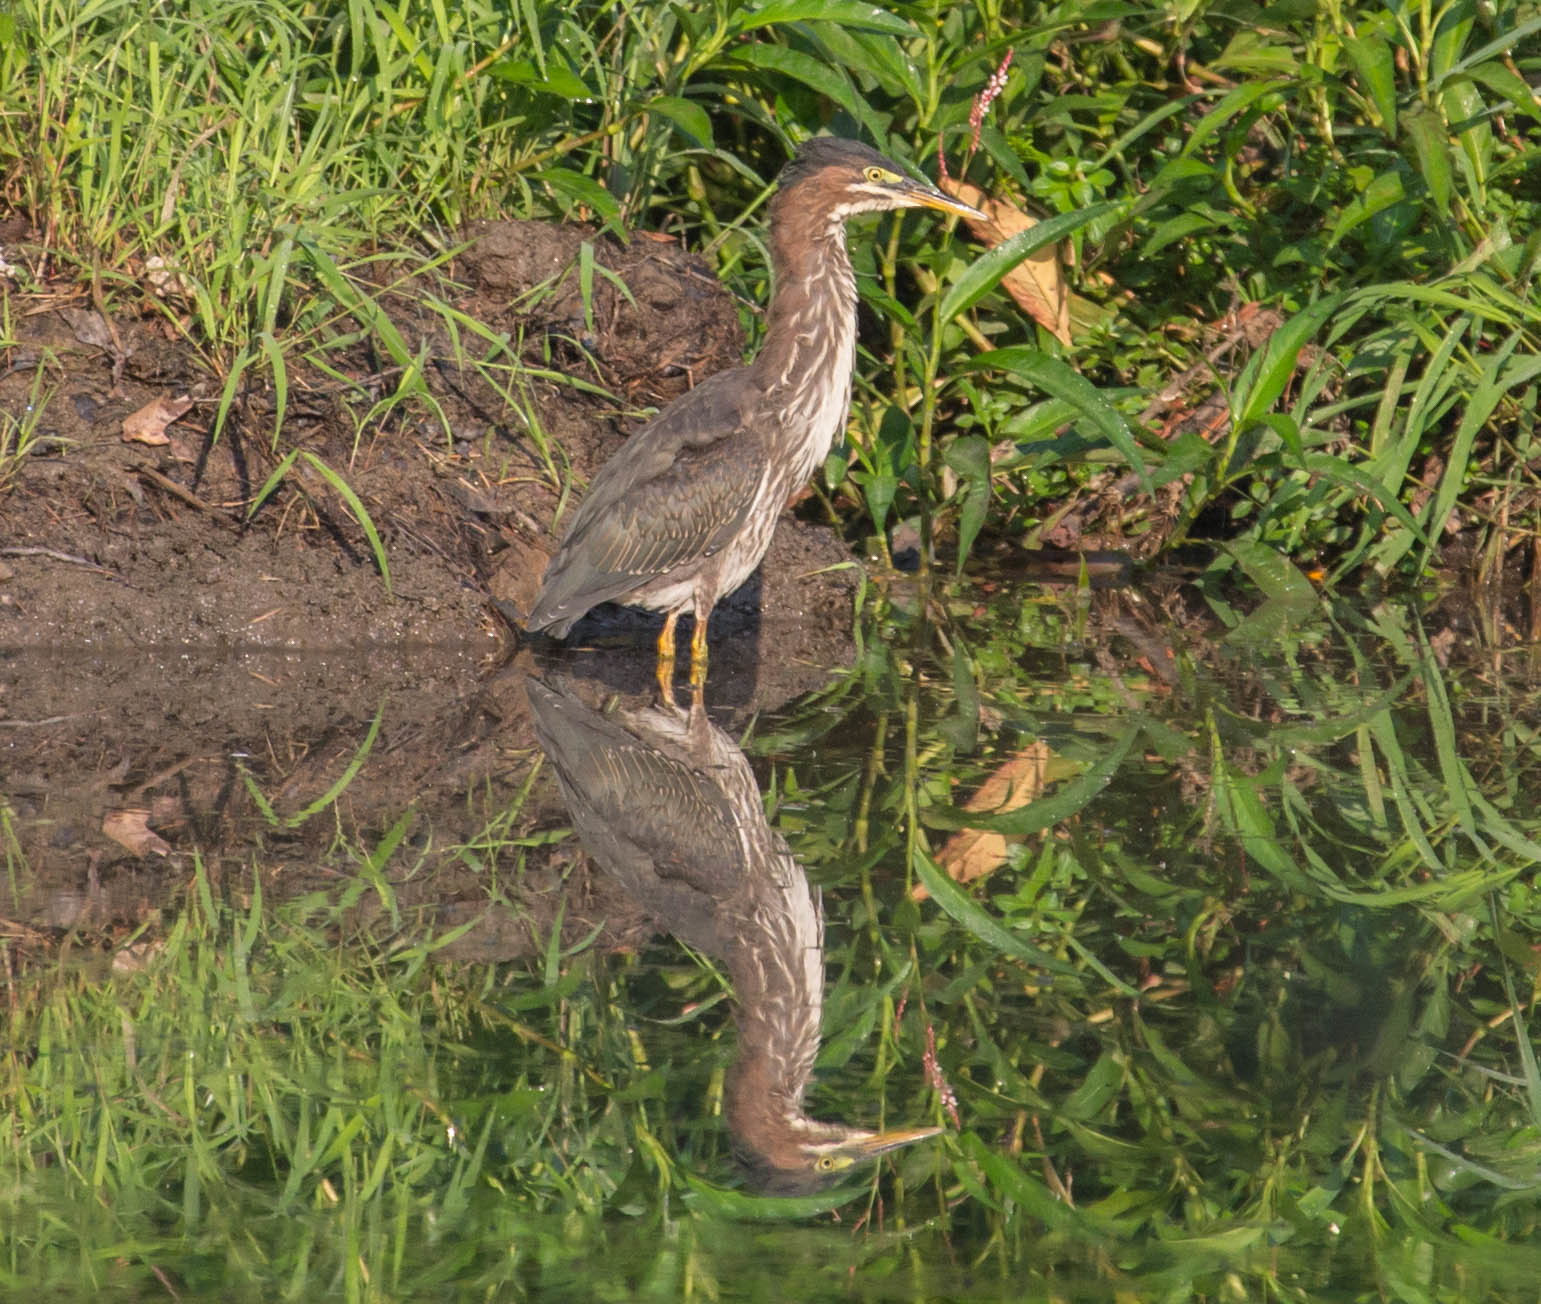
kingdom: Animalia
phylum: Chordata
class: Aves
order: Pelecaniformes
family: Ardeidae
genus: Butorides
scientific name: Butorides virescens
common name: Green heron
